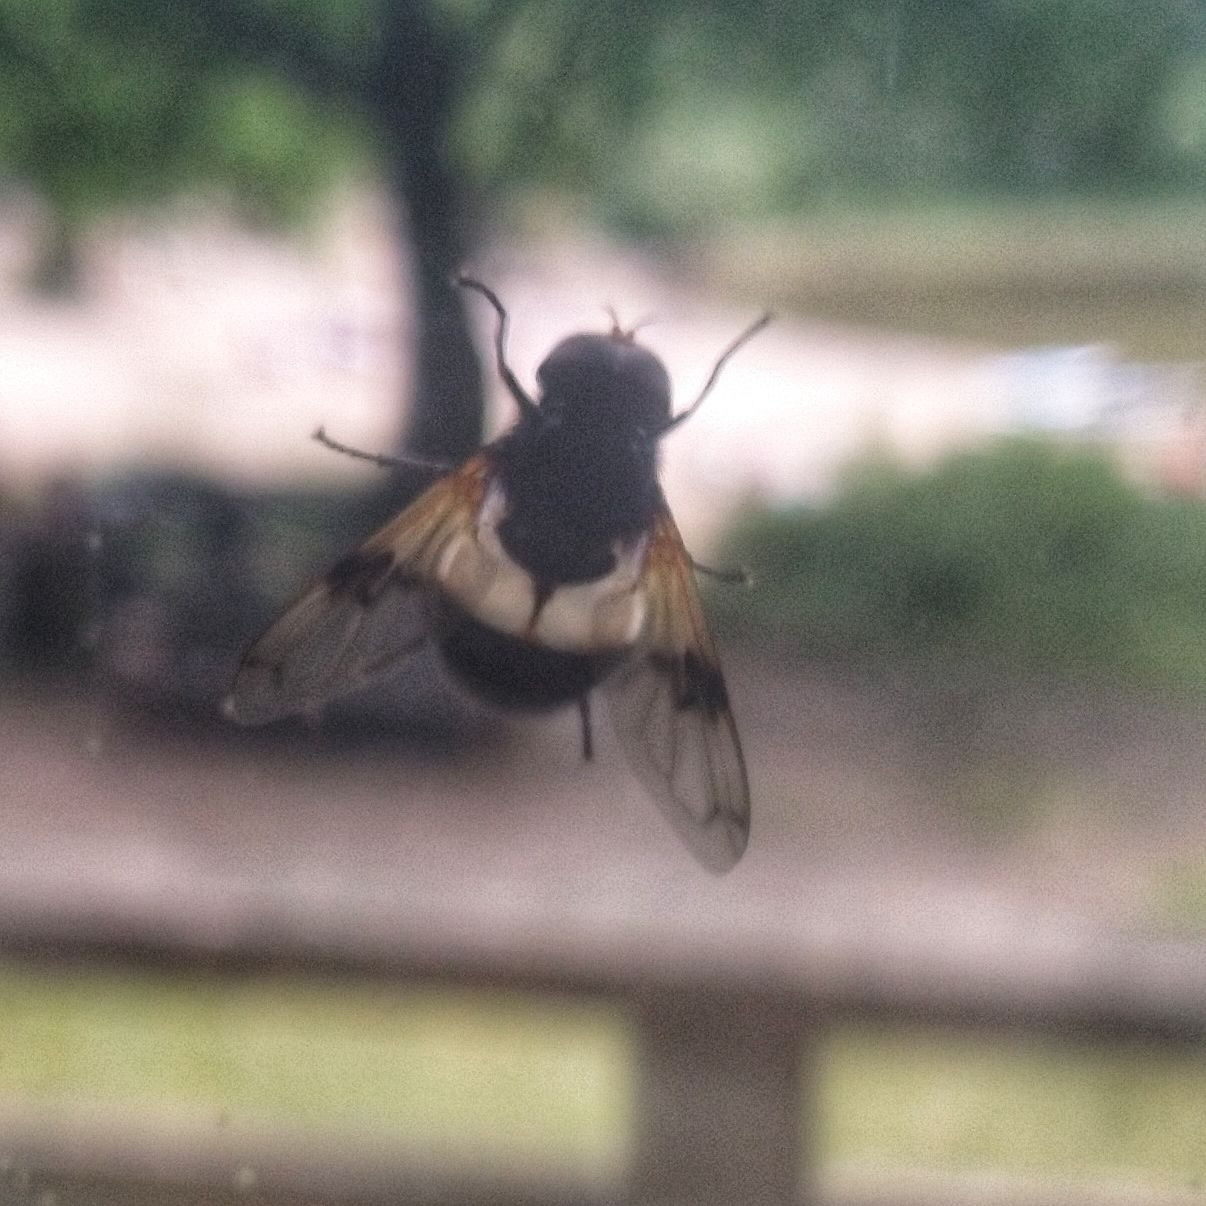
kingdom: Animalia
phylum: Arthropoda
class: Insecta
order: Diptera
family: Syrphidae
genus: Volucella
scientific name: Volucella pellucens
